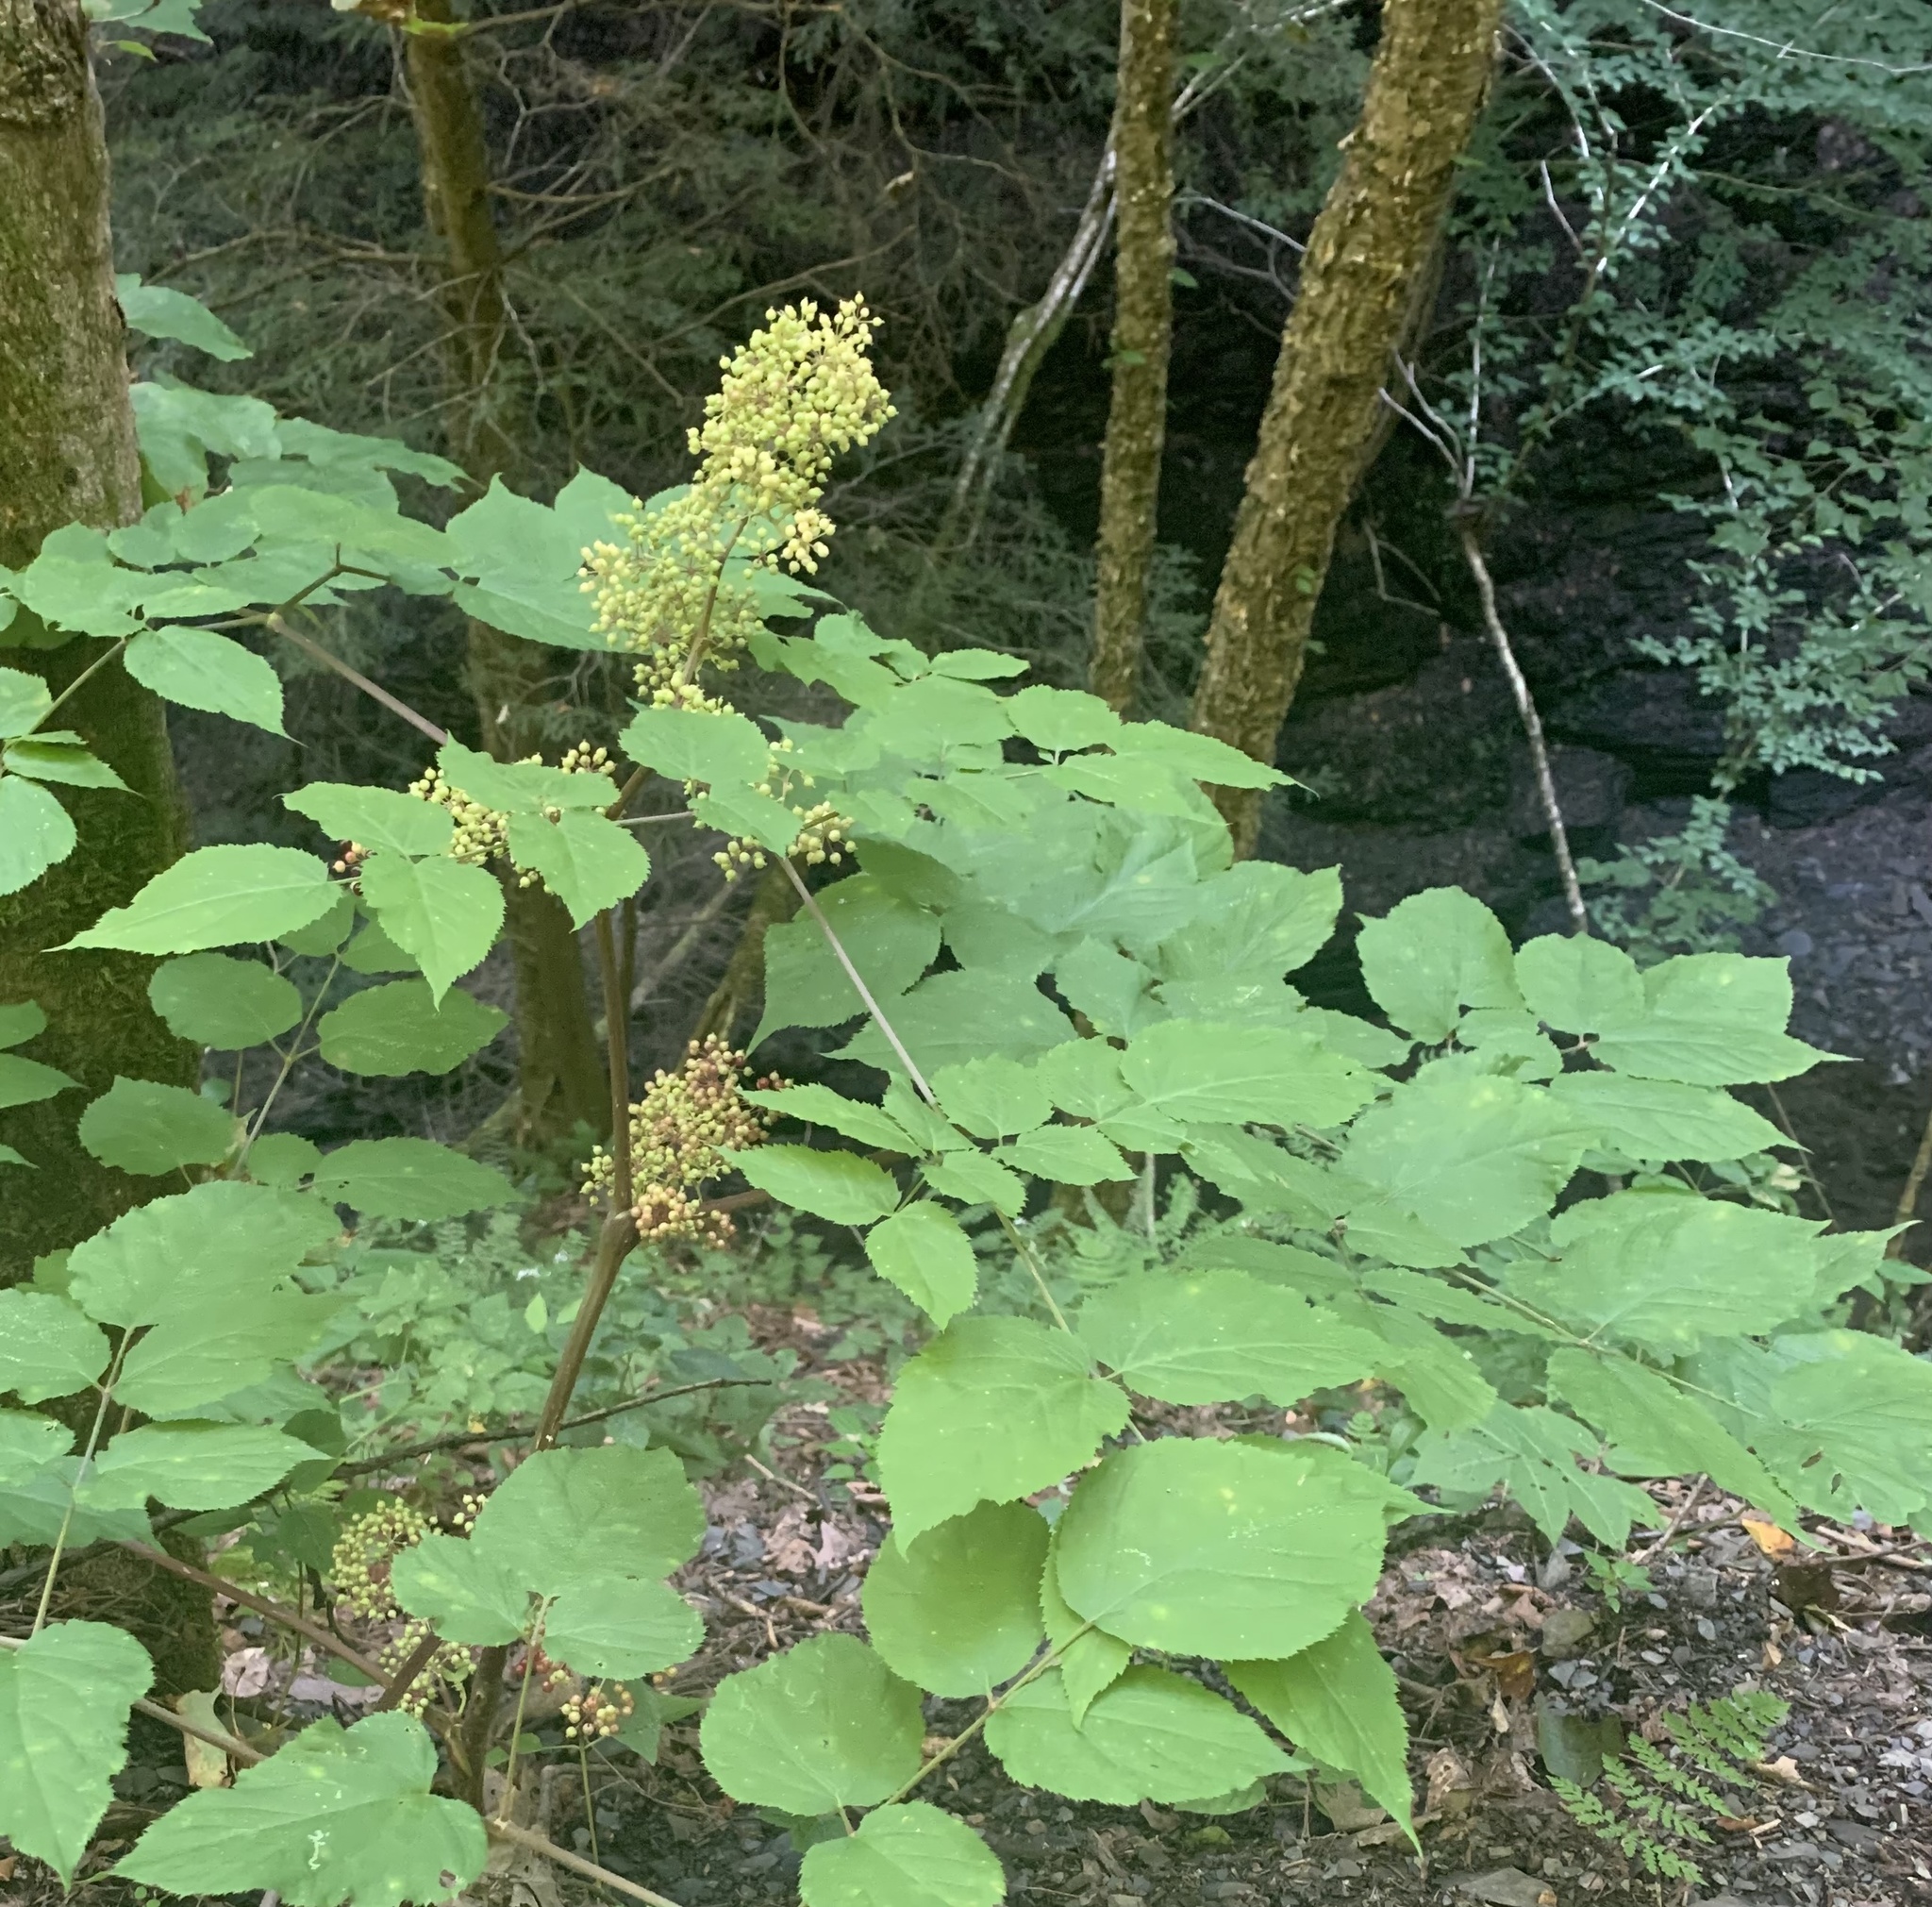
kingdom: Plantae
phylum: Tracheophyta
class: Magnoliopsida
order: Apiales
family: Araliaceae
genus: Aralia
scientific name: Aralia racemosa
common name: American-spikenard
